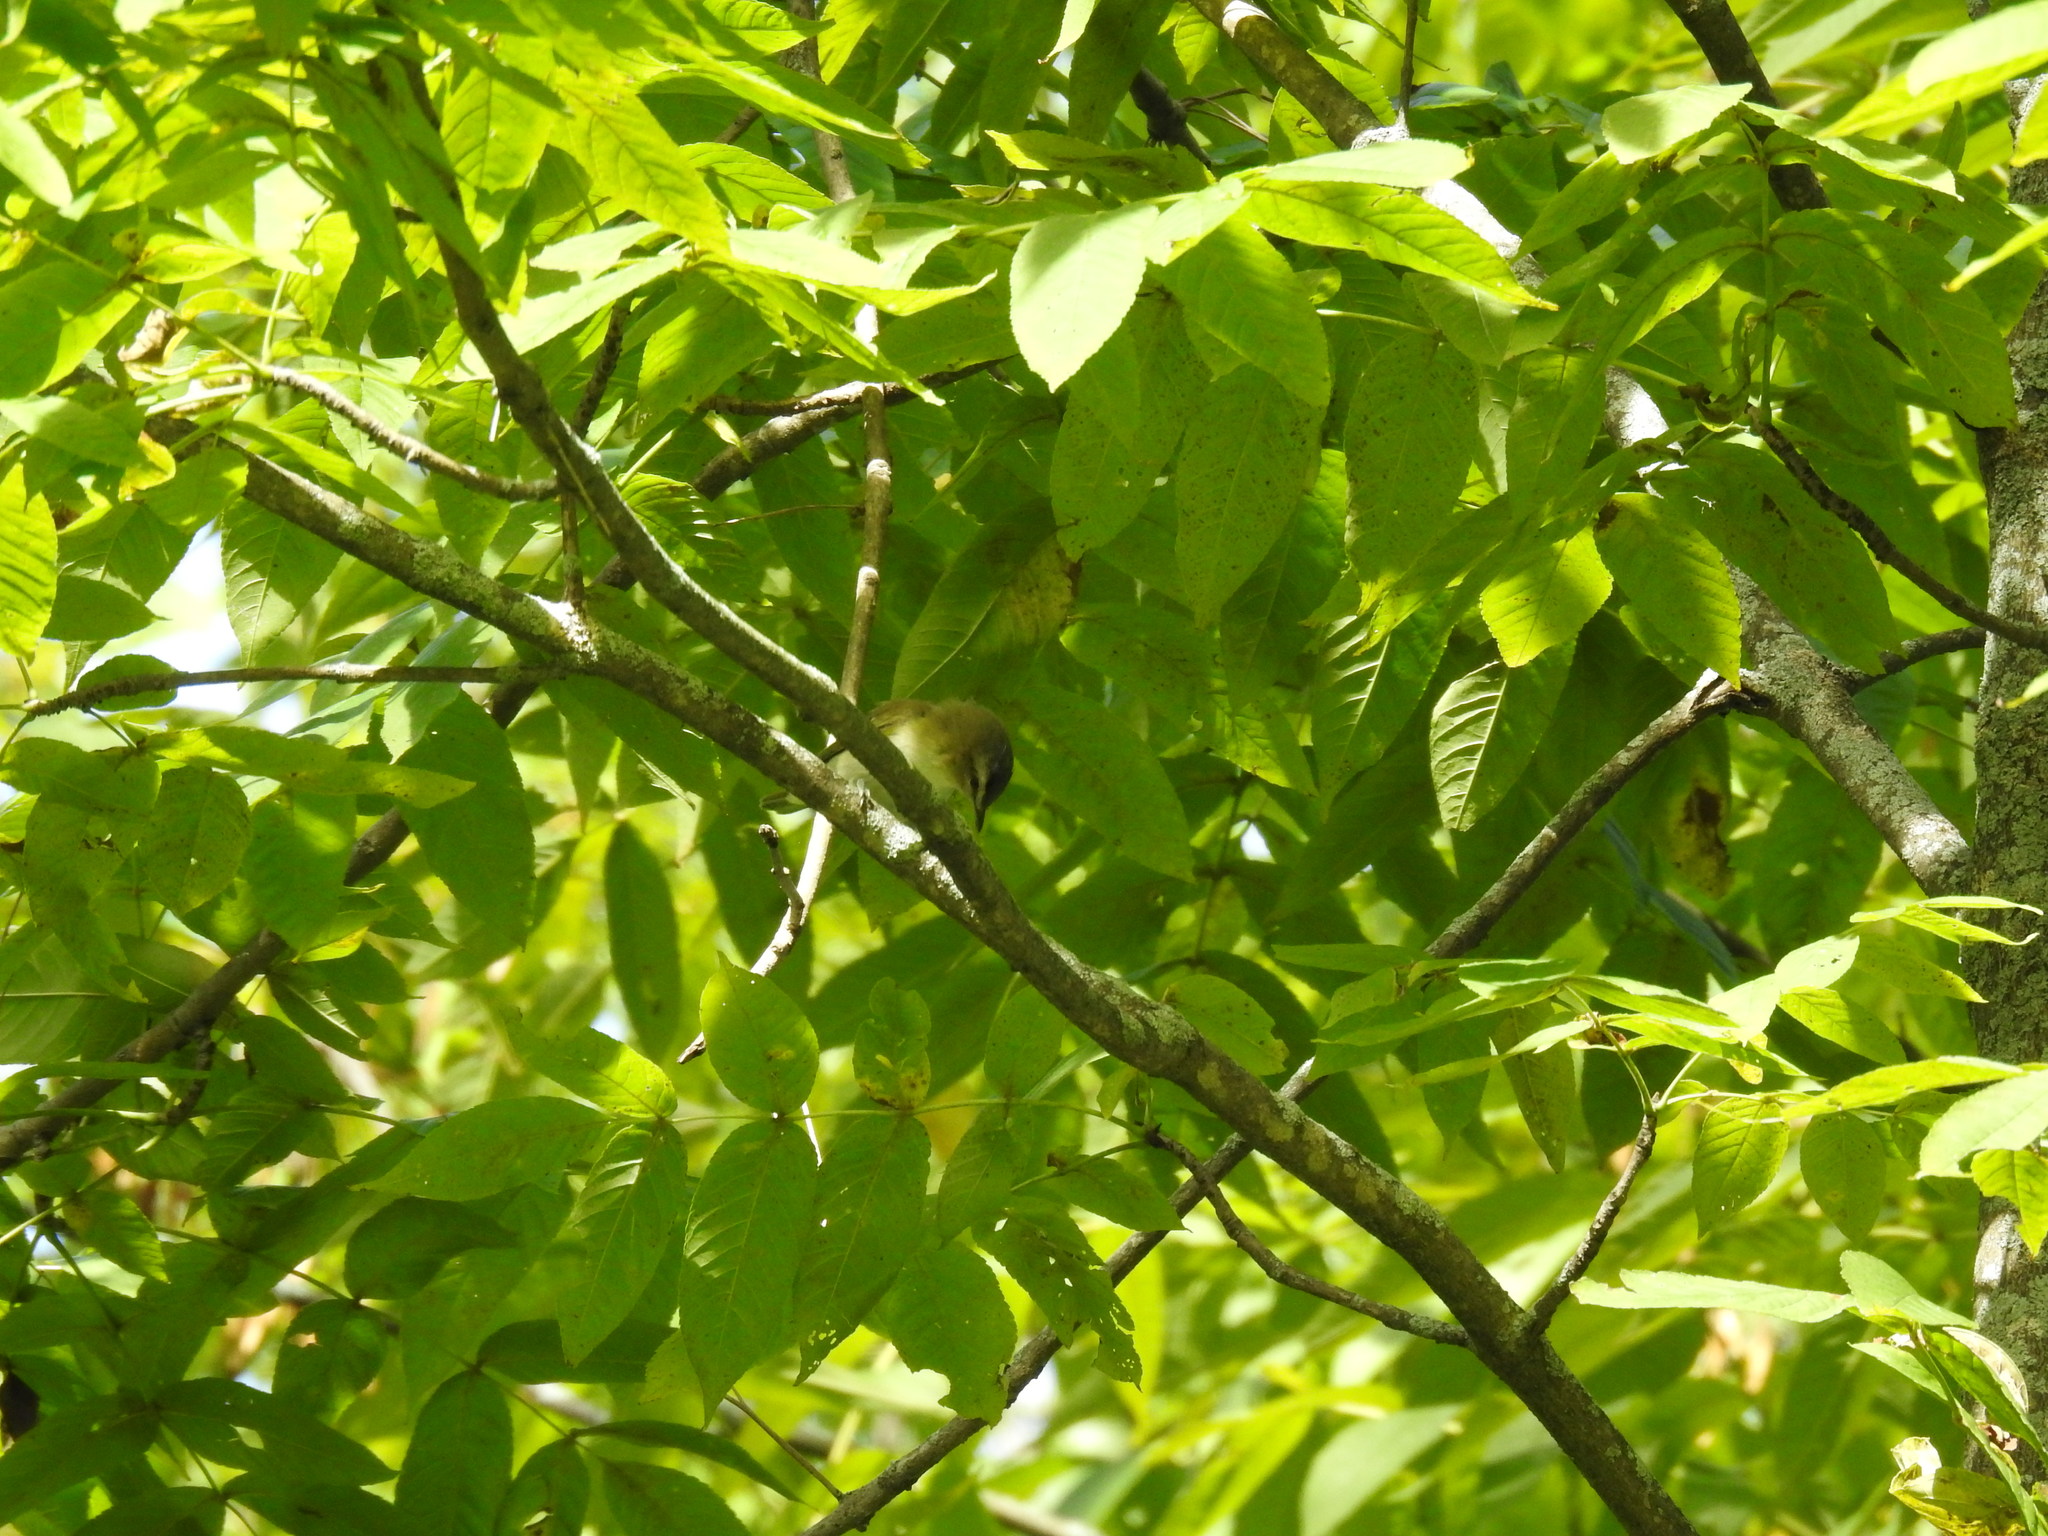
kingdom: Animalia
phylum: Chordata
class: Aves
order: Passeriformes
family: Vireonidae
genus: Vireo
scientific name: Vireo olivaceus
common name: Red-eyed vireo
